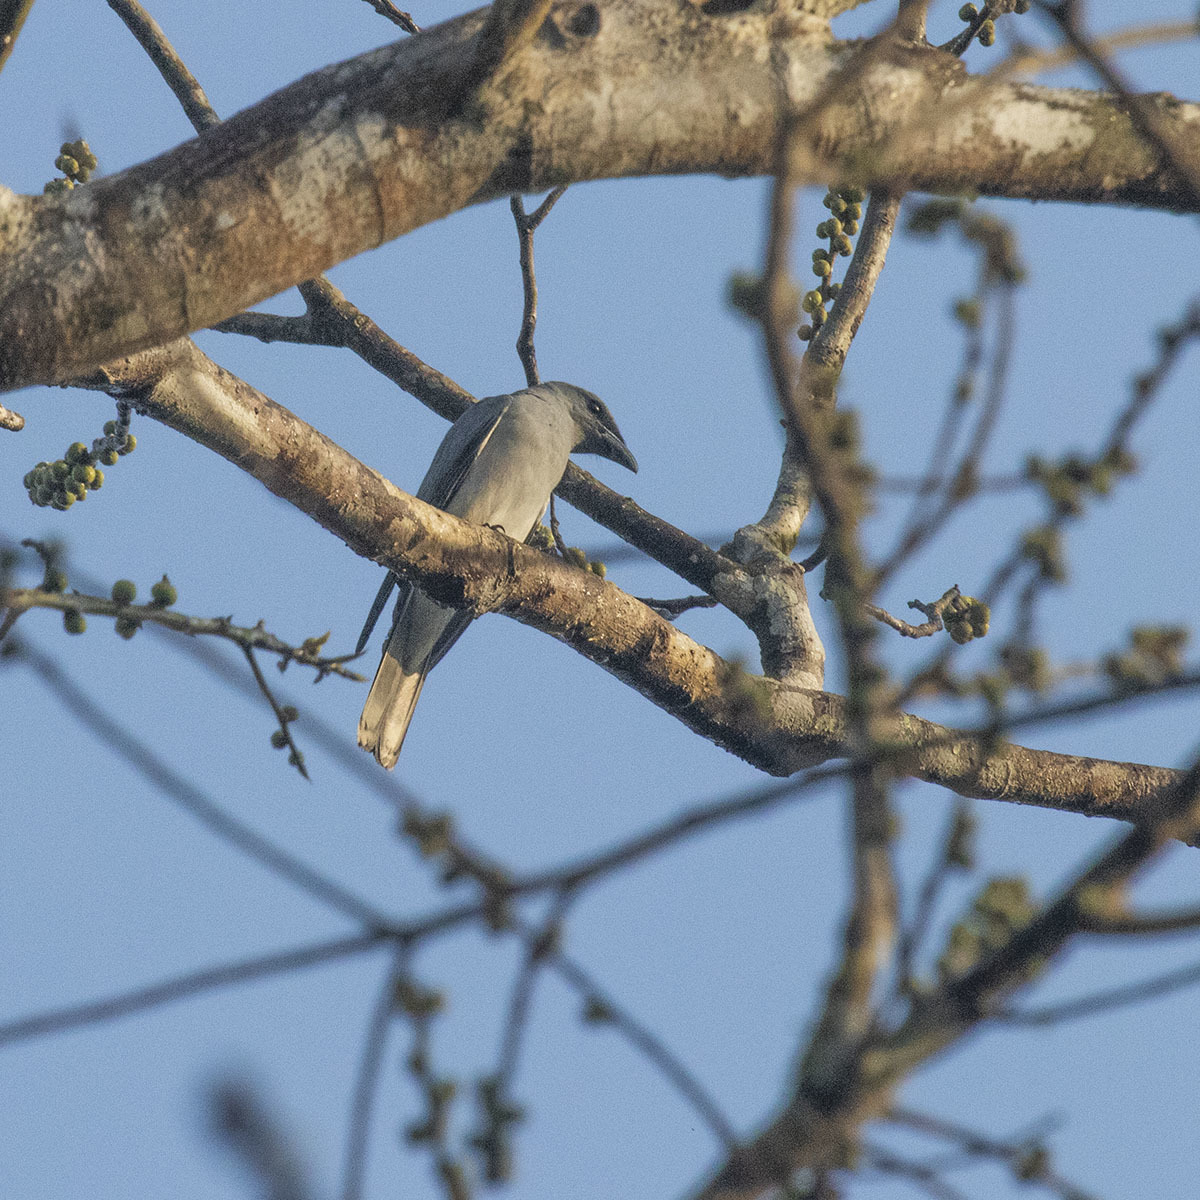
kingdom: Animalia
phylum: Chordata
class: Aves
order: Passeriformes
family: Campephagidae
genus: Coracina
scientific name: Coracina macei
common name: Large cuckooshrike
